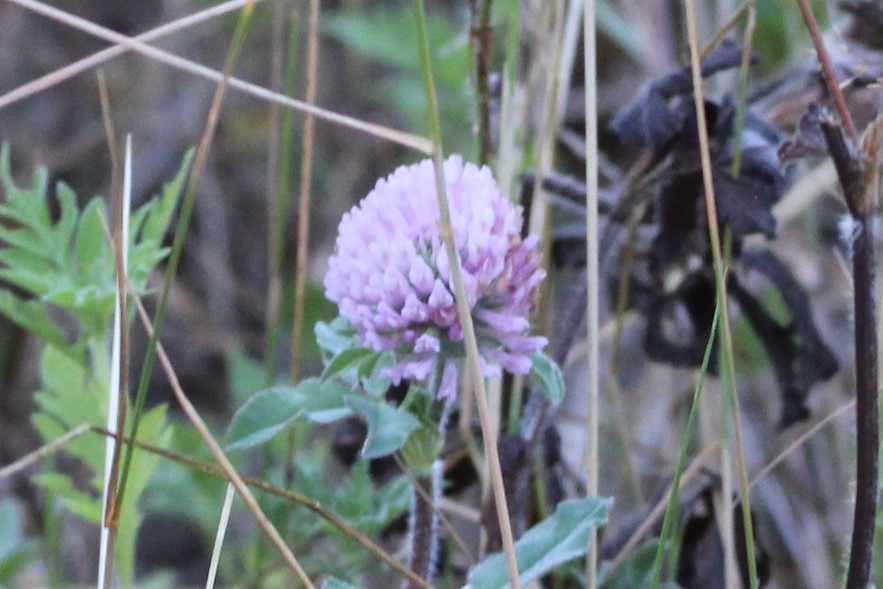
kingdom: Plantae
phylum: Tracheophyta
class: Magnoliopsida
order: Fabales
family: Fabaceae
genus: Trifolium
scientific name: Trifolium pratense
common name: Red clover
